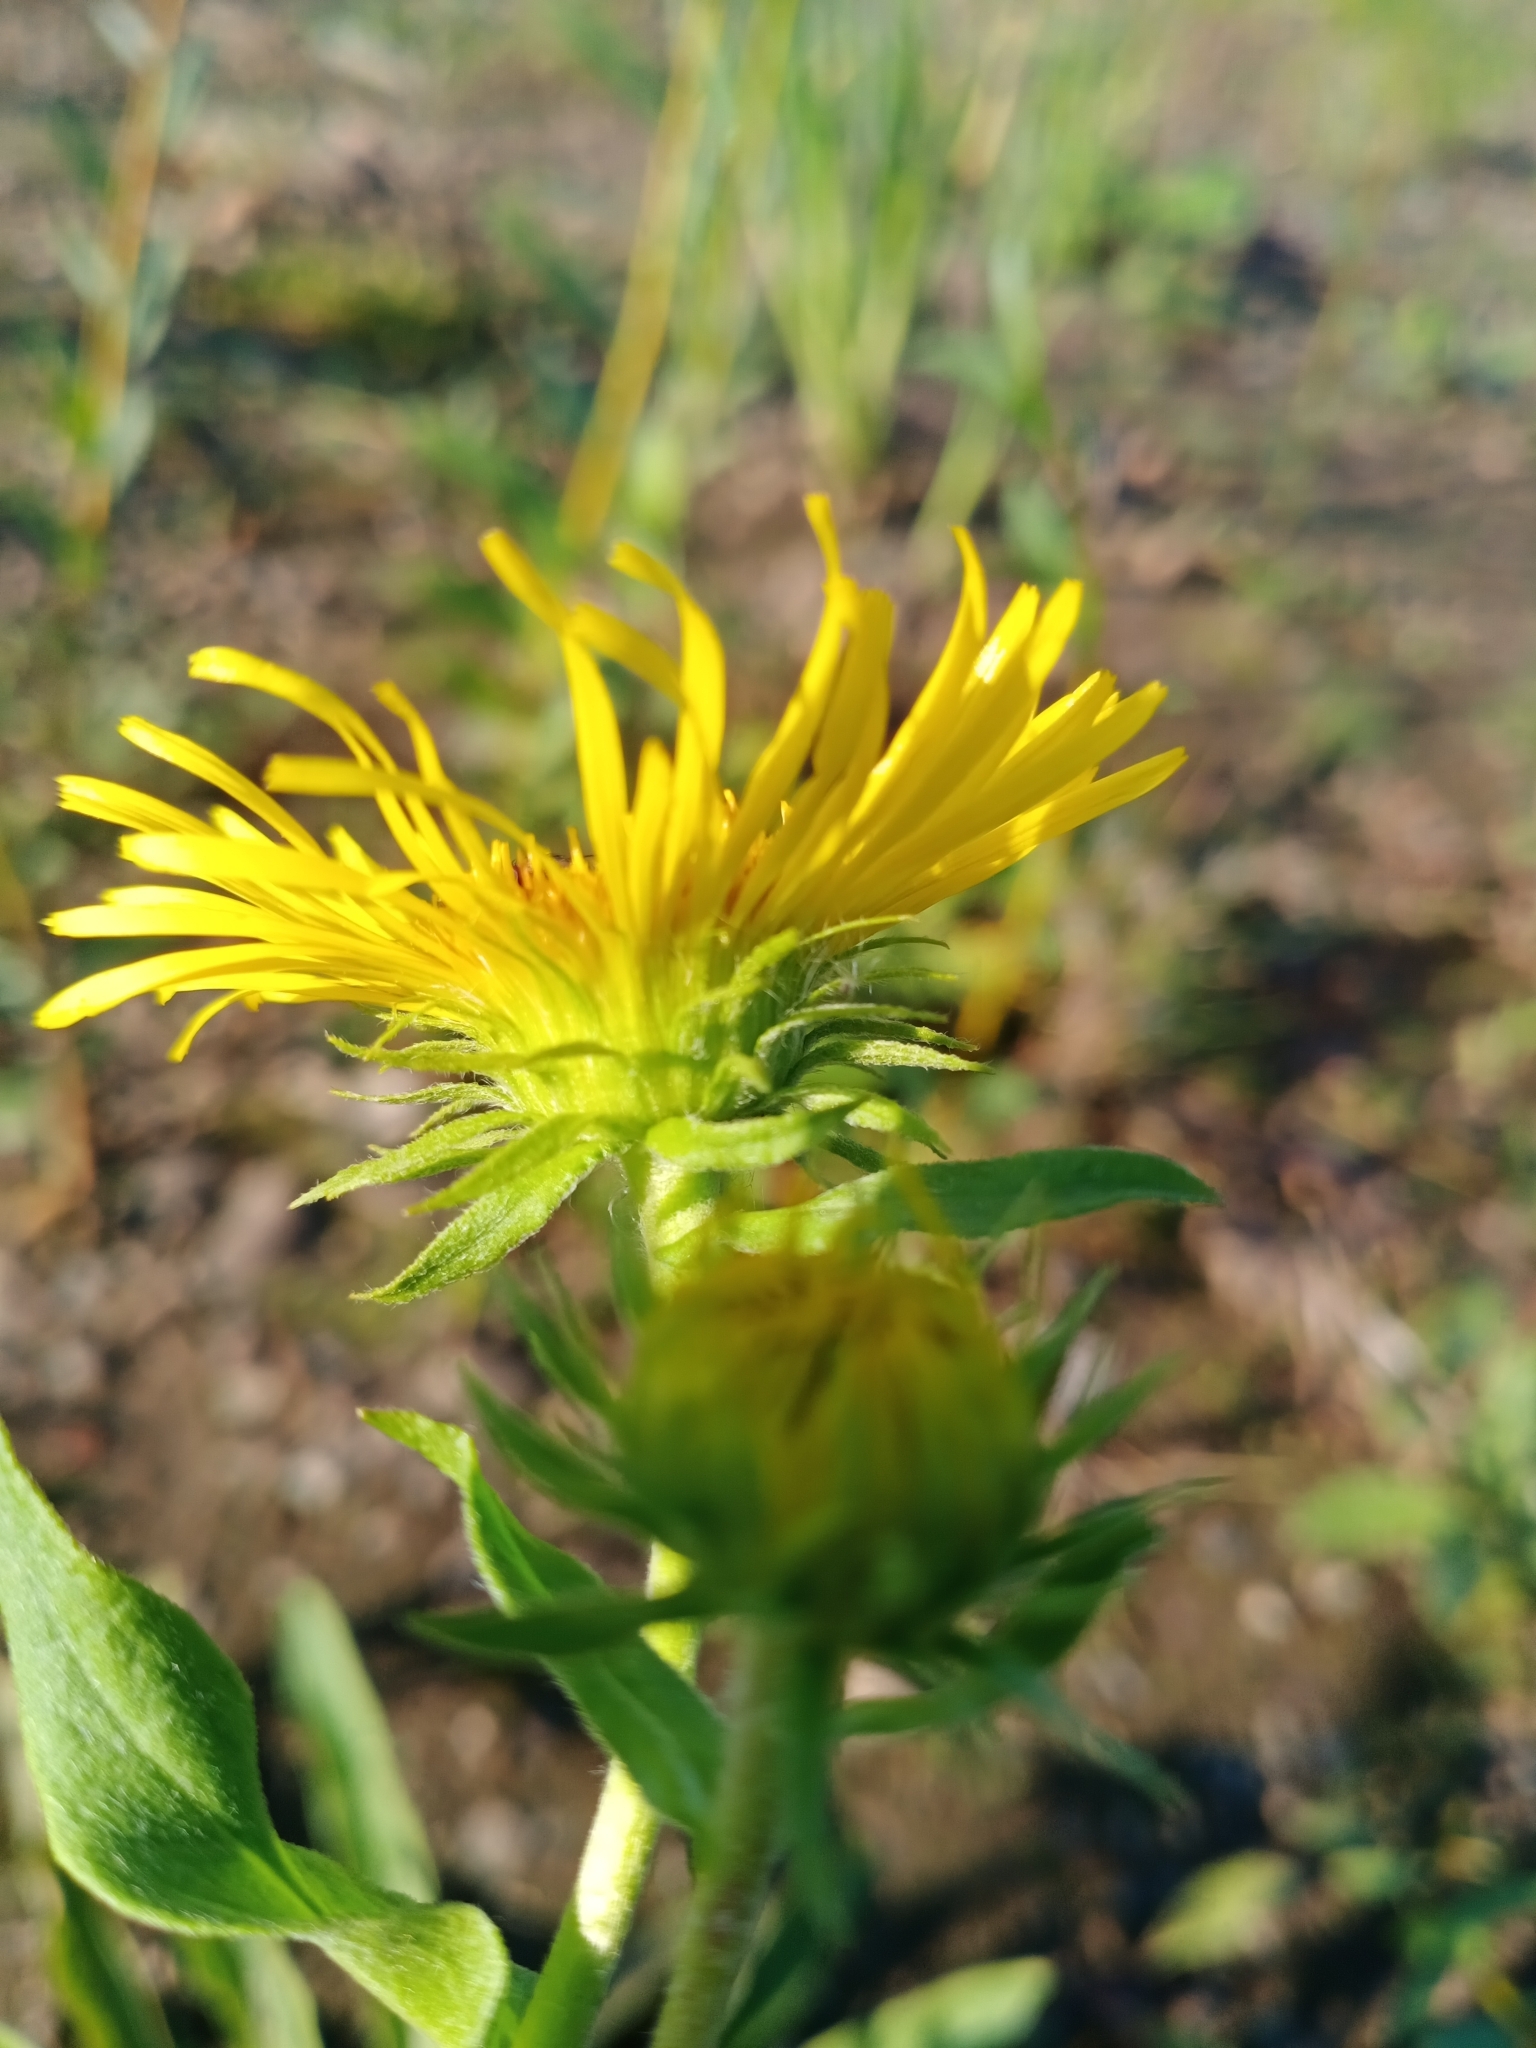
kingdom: Plantae
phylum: Tracheophyta
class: Magnoliopsida
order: Asterales
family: Asteraceae
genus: Pentanema
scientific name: Pentanema britannicum
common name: British elecampane
